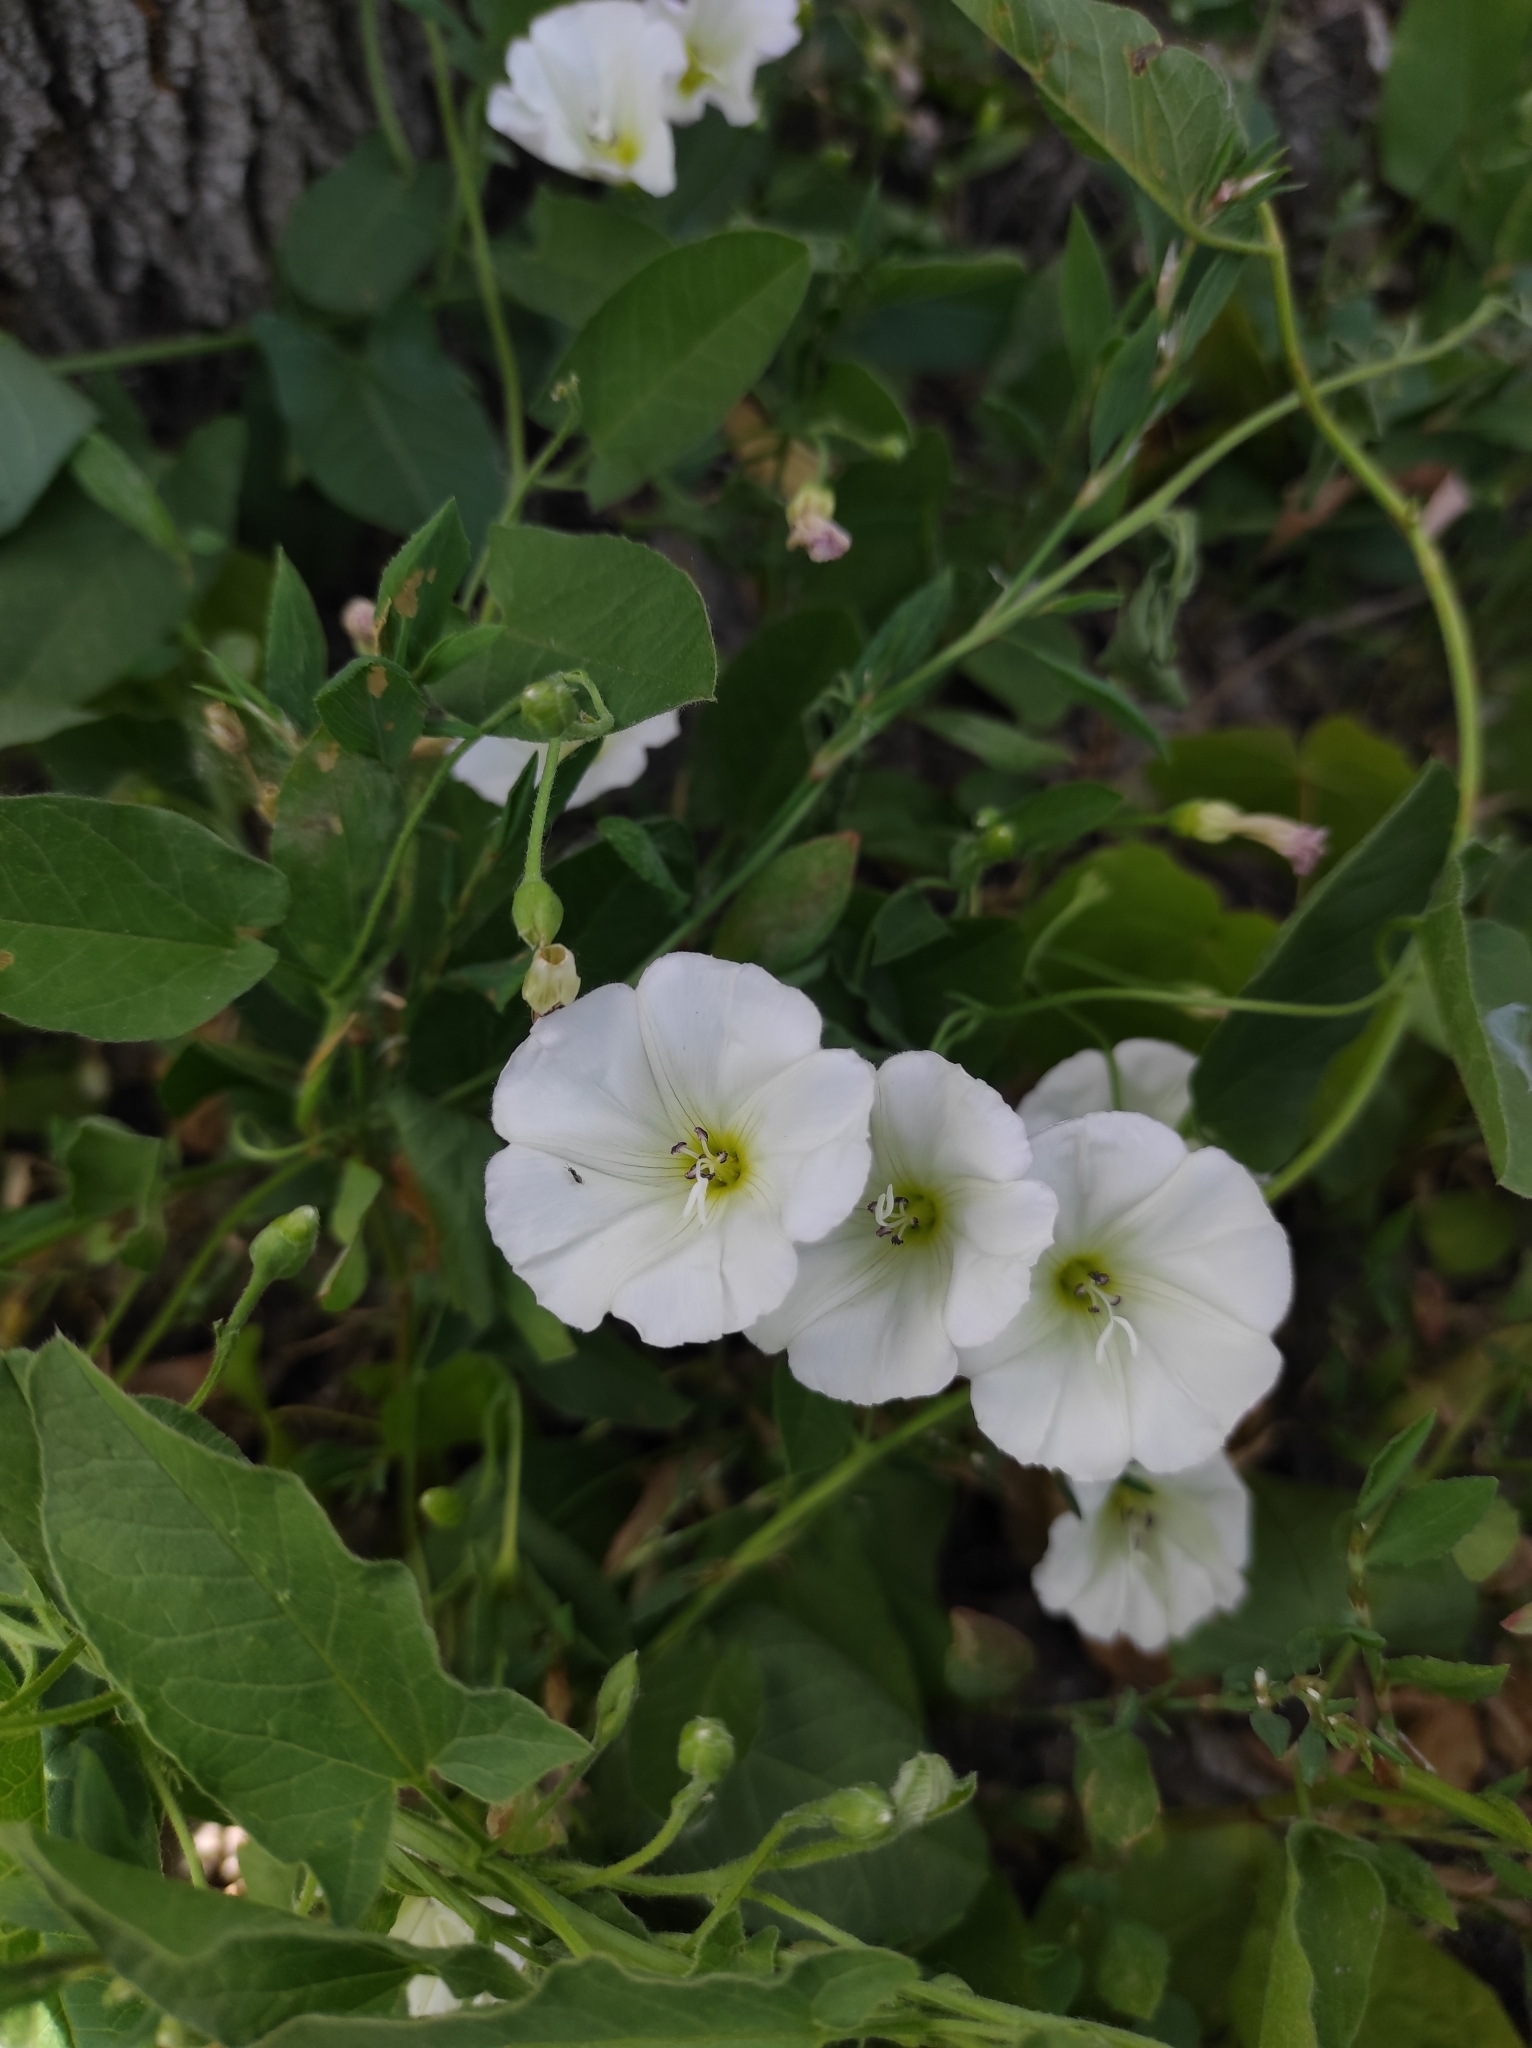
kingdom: Plantae
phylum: Tracheophyta
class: Magnoliopsida
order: Solanales
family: Convolvulaceae
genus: Convolvulus
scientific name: Convolvulus arvensis
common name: Field bindweed
